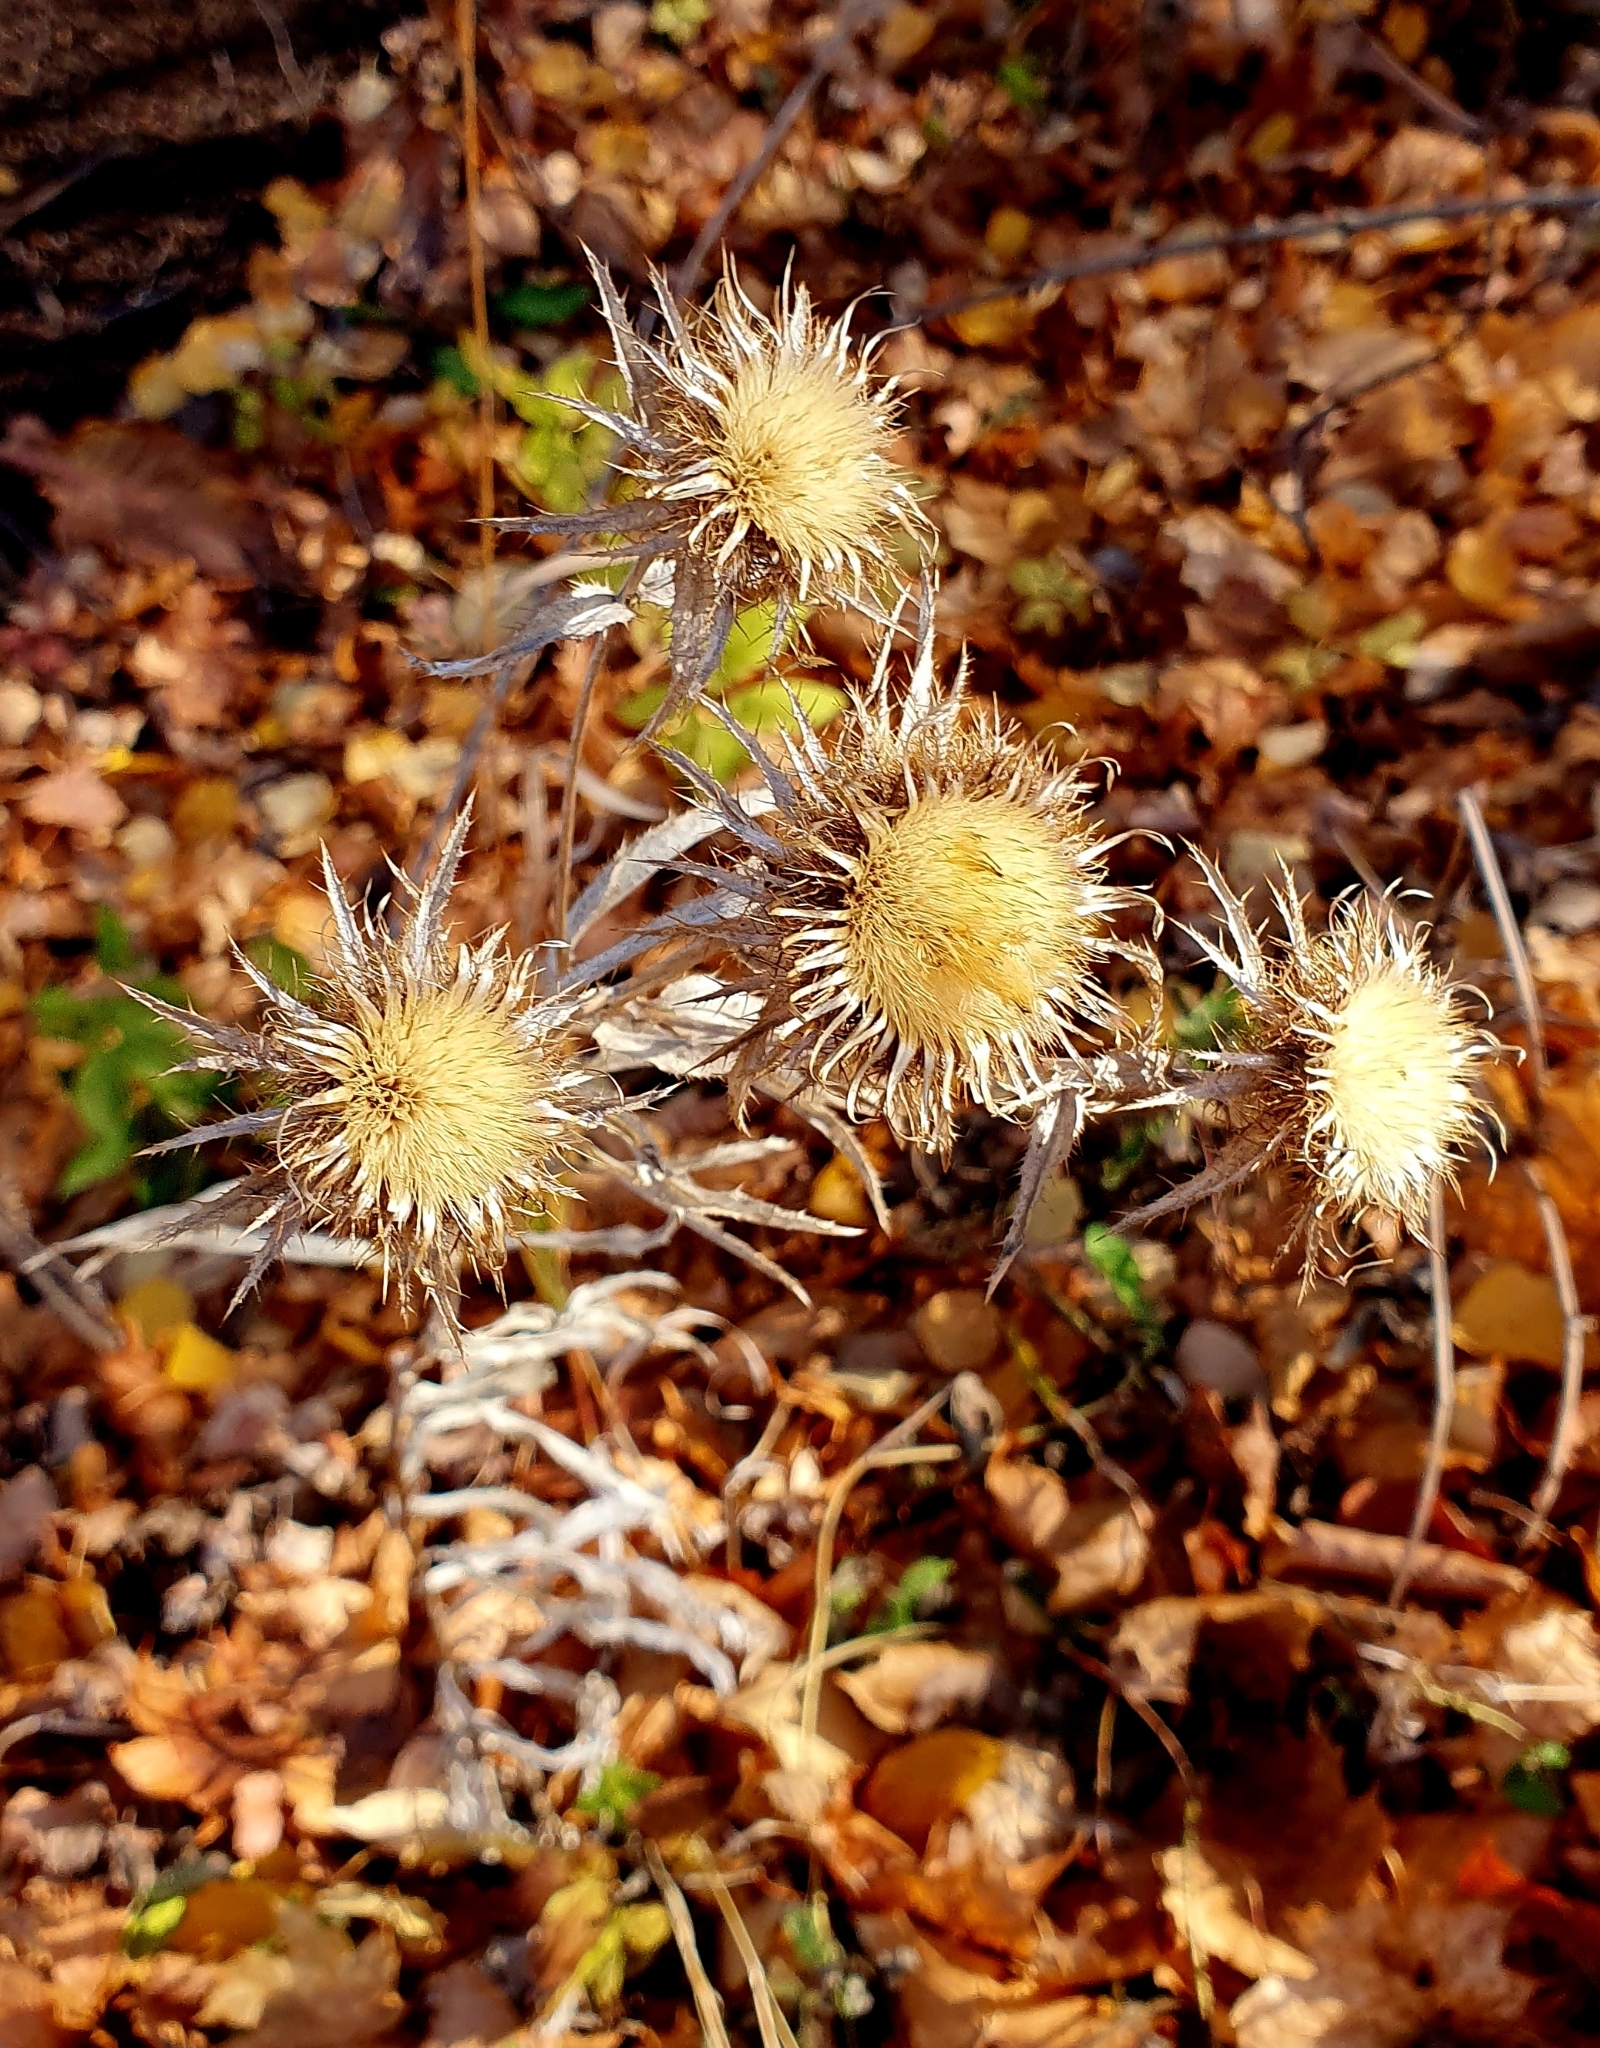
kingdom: Plantae
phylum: Tracheophyta
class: Magnoliopsida
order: Asterales
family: Asteraceae
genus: Carlina
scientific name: Carlina biebersteinii
